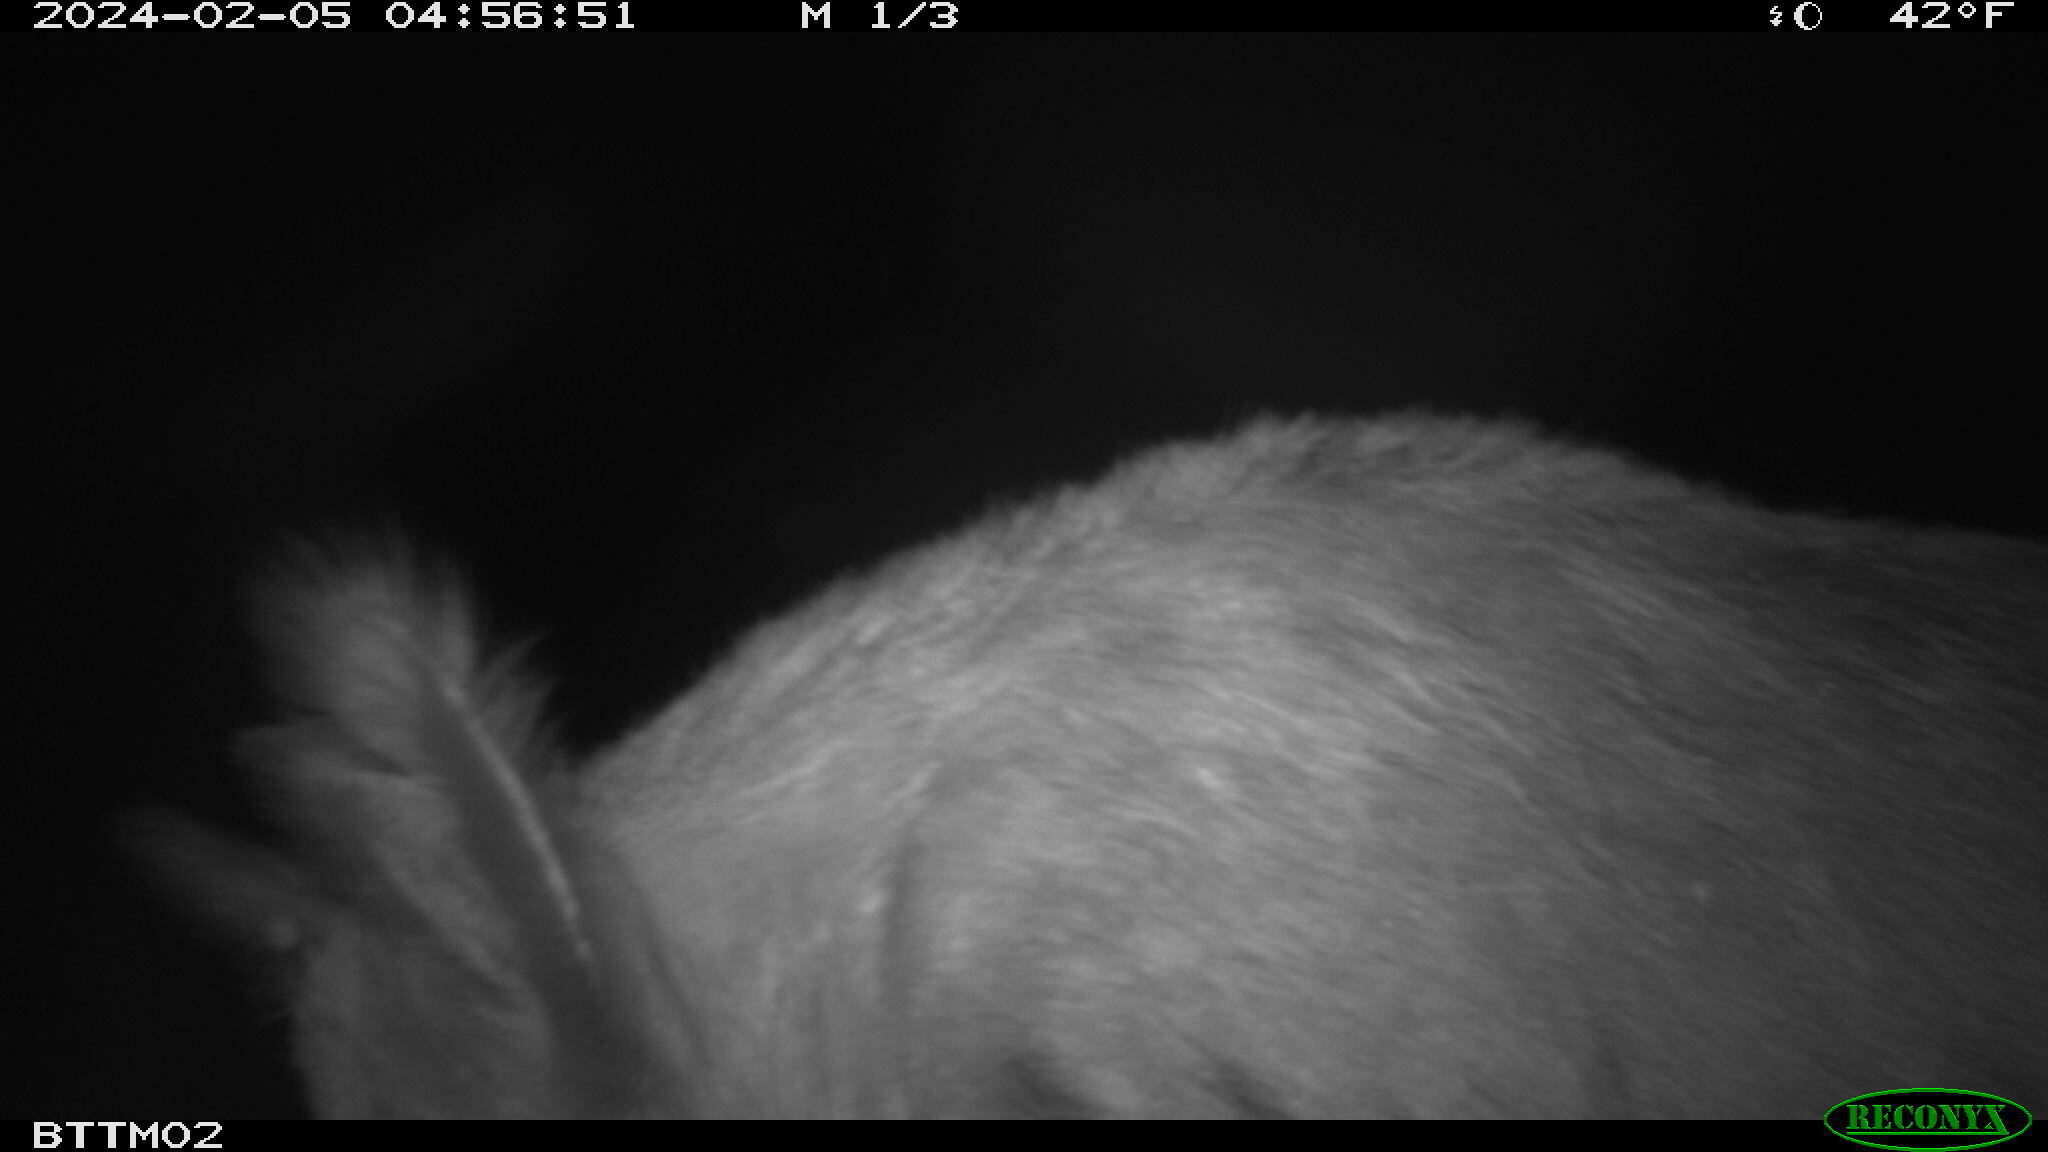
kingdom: Animalia
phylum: Chordata
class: Mammalia
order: Artiodactyla
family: Suidae
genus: Sus
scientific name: Sus scrofa
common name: Wild boar
